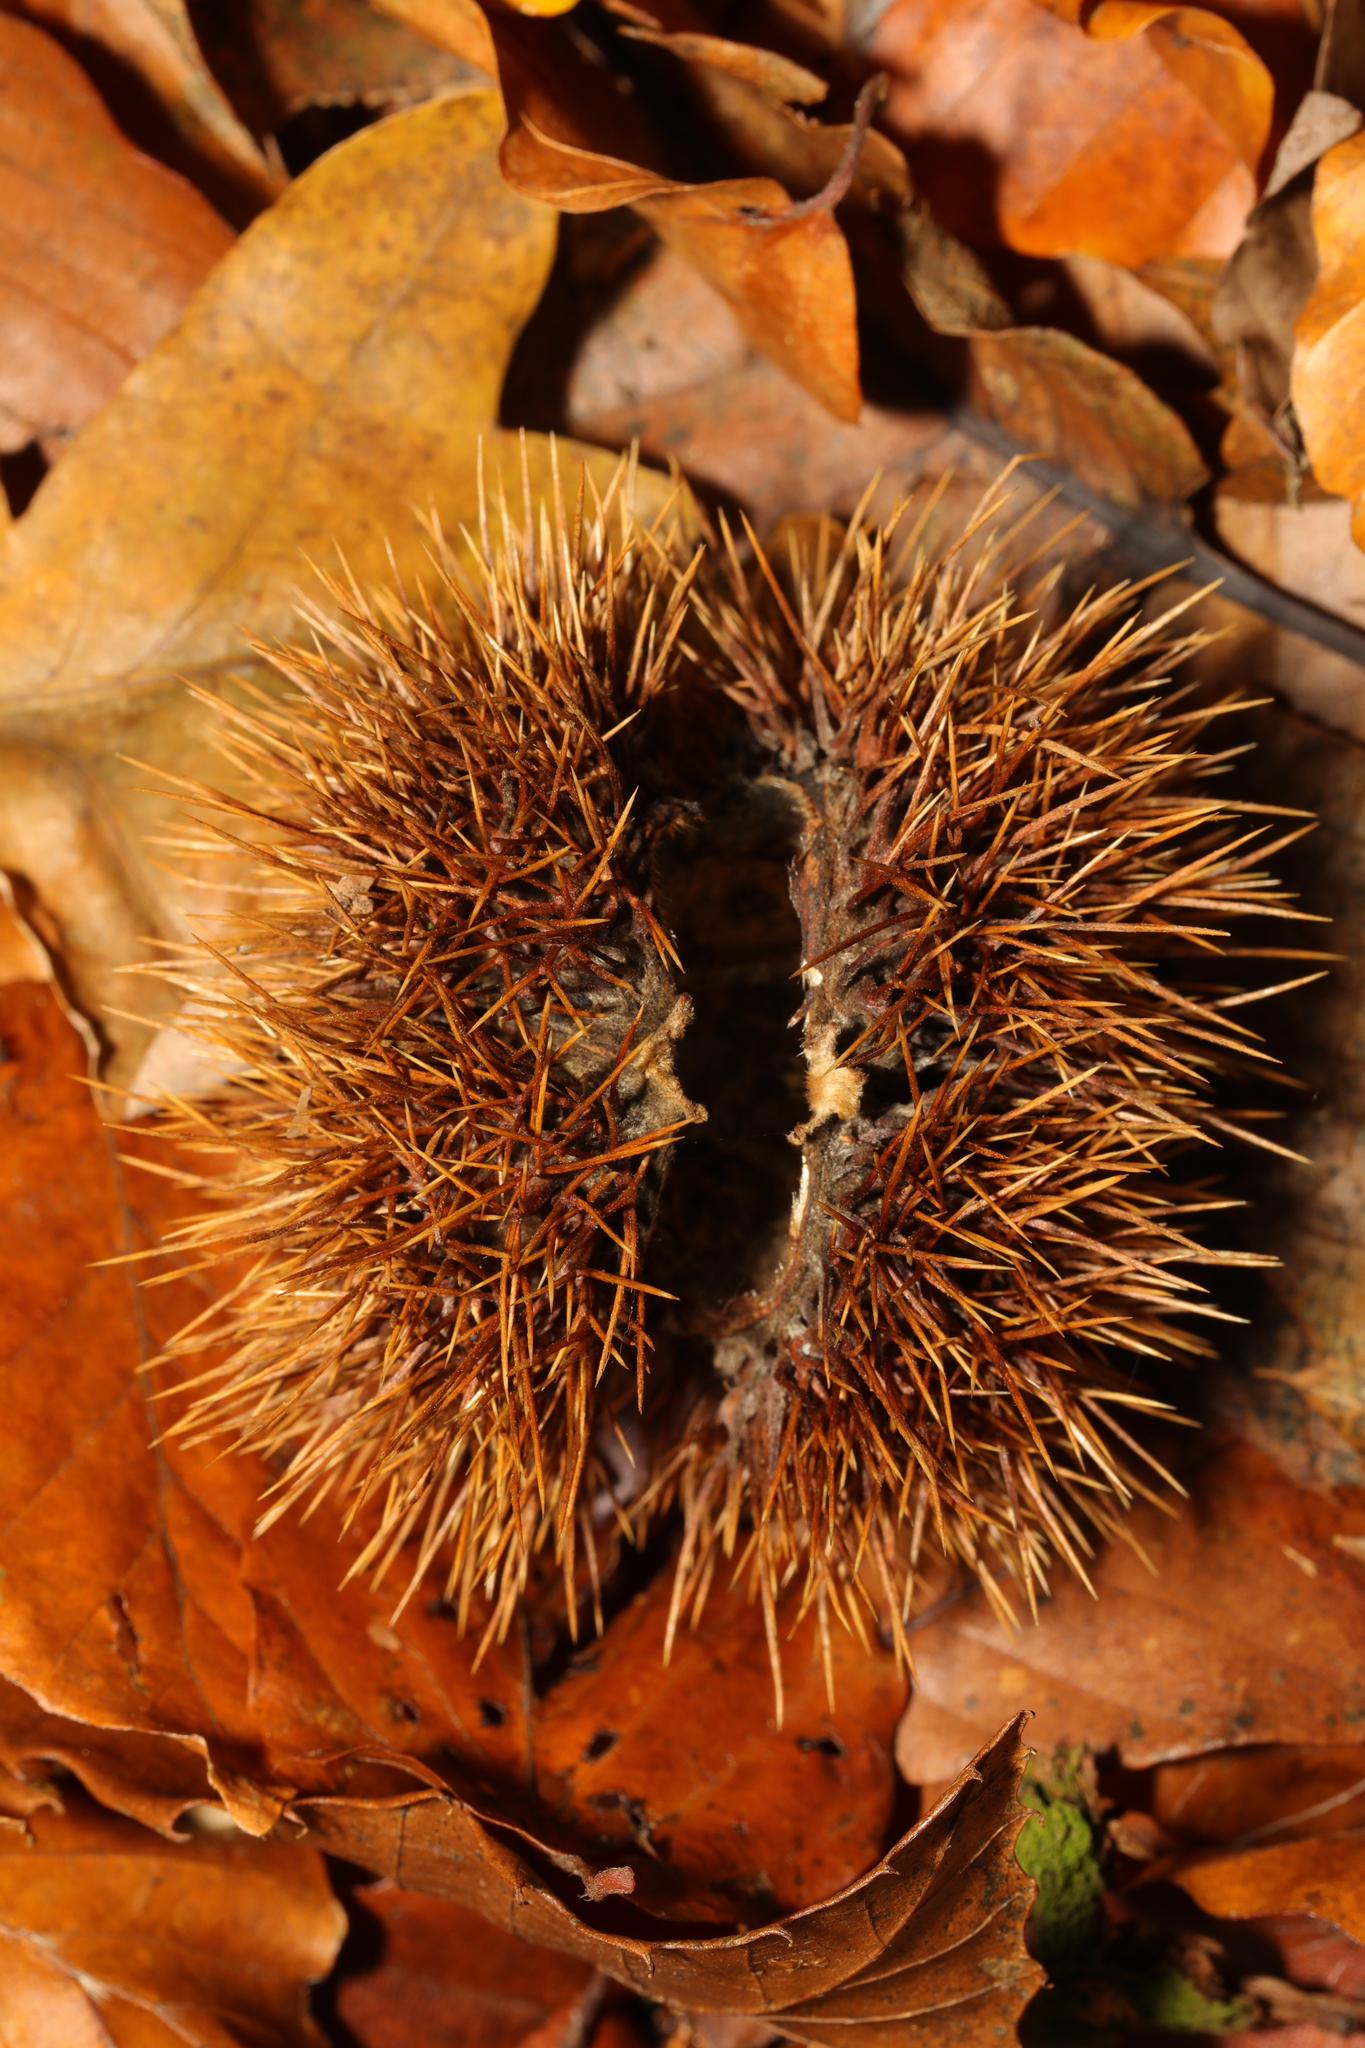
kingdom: Plantae
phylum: Tracheophyta
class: Magnoliopsida
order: Fagales
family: Fagaceae
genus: Castanea
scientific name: Castanea sativa
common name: Sweet chestnut
